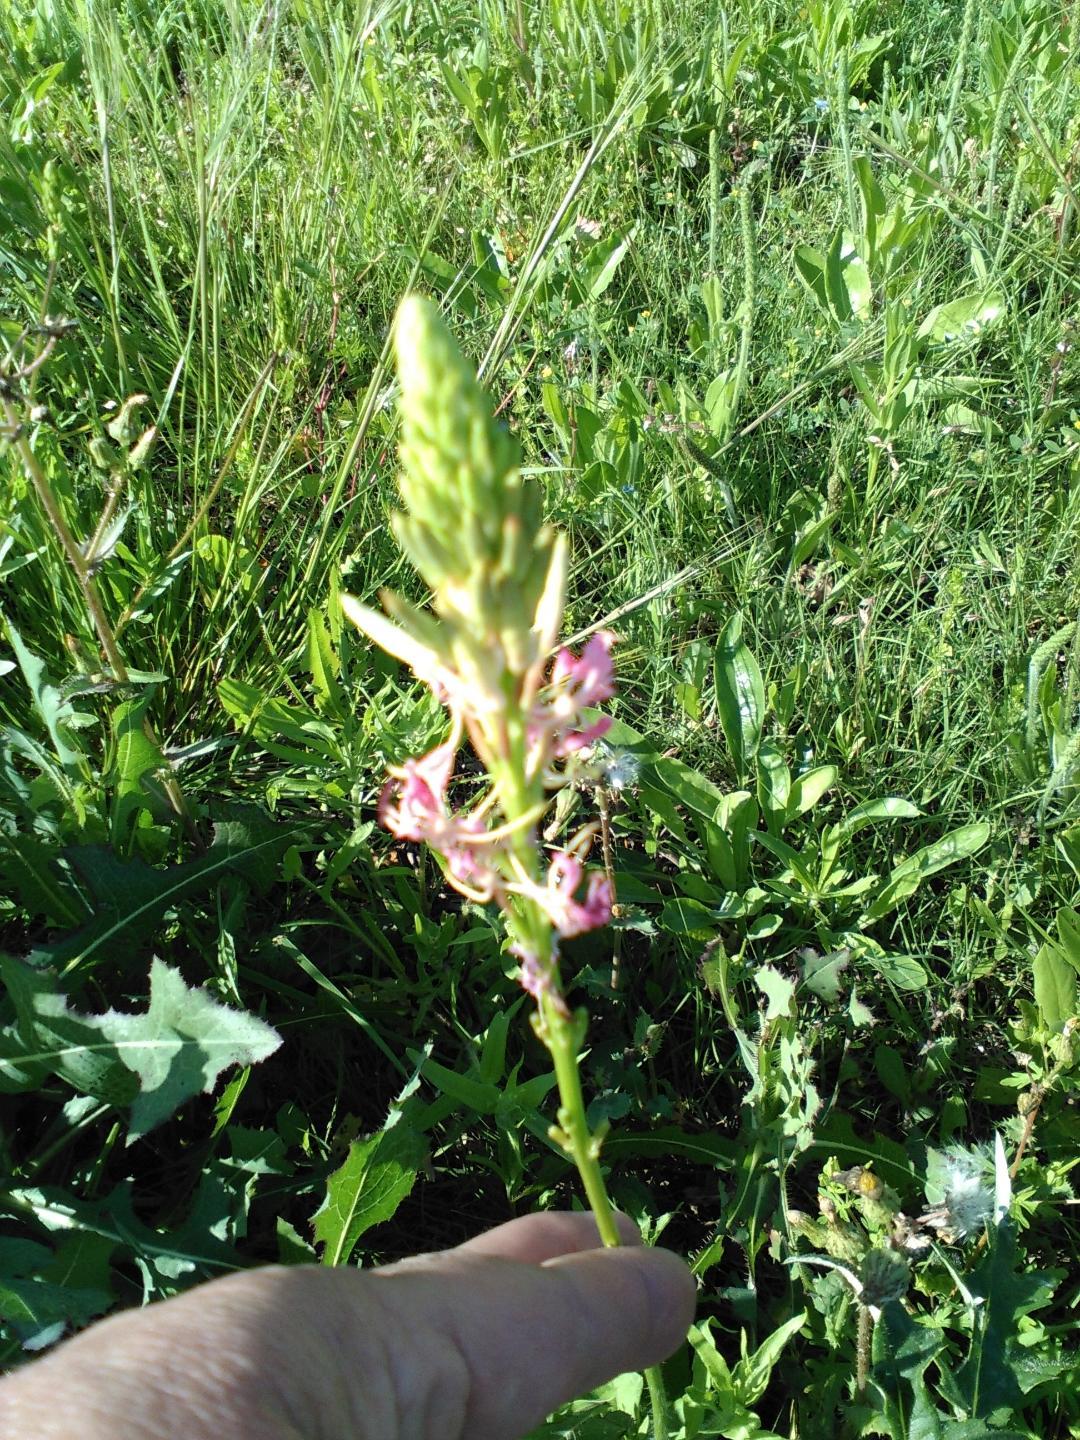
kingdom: Plantae
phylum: Tracheophyta
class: Magnoliopsida
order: Myrtales
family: Onagraceae
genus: Oenothera
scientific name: Oenothera suffulta
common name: Kisses
